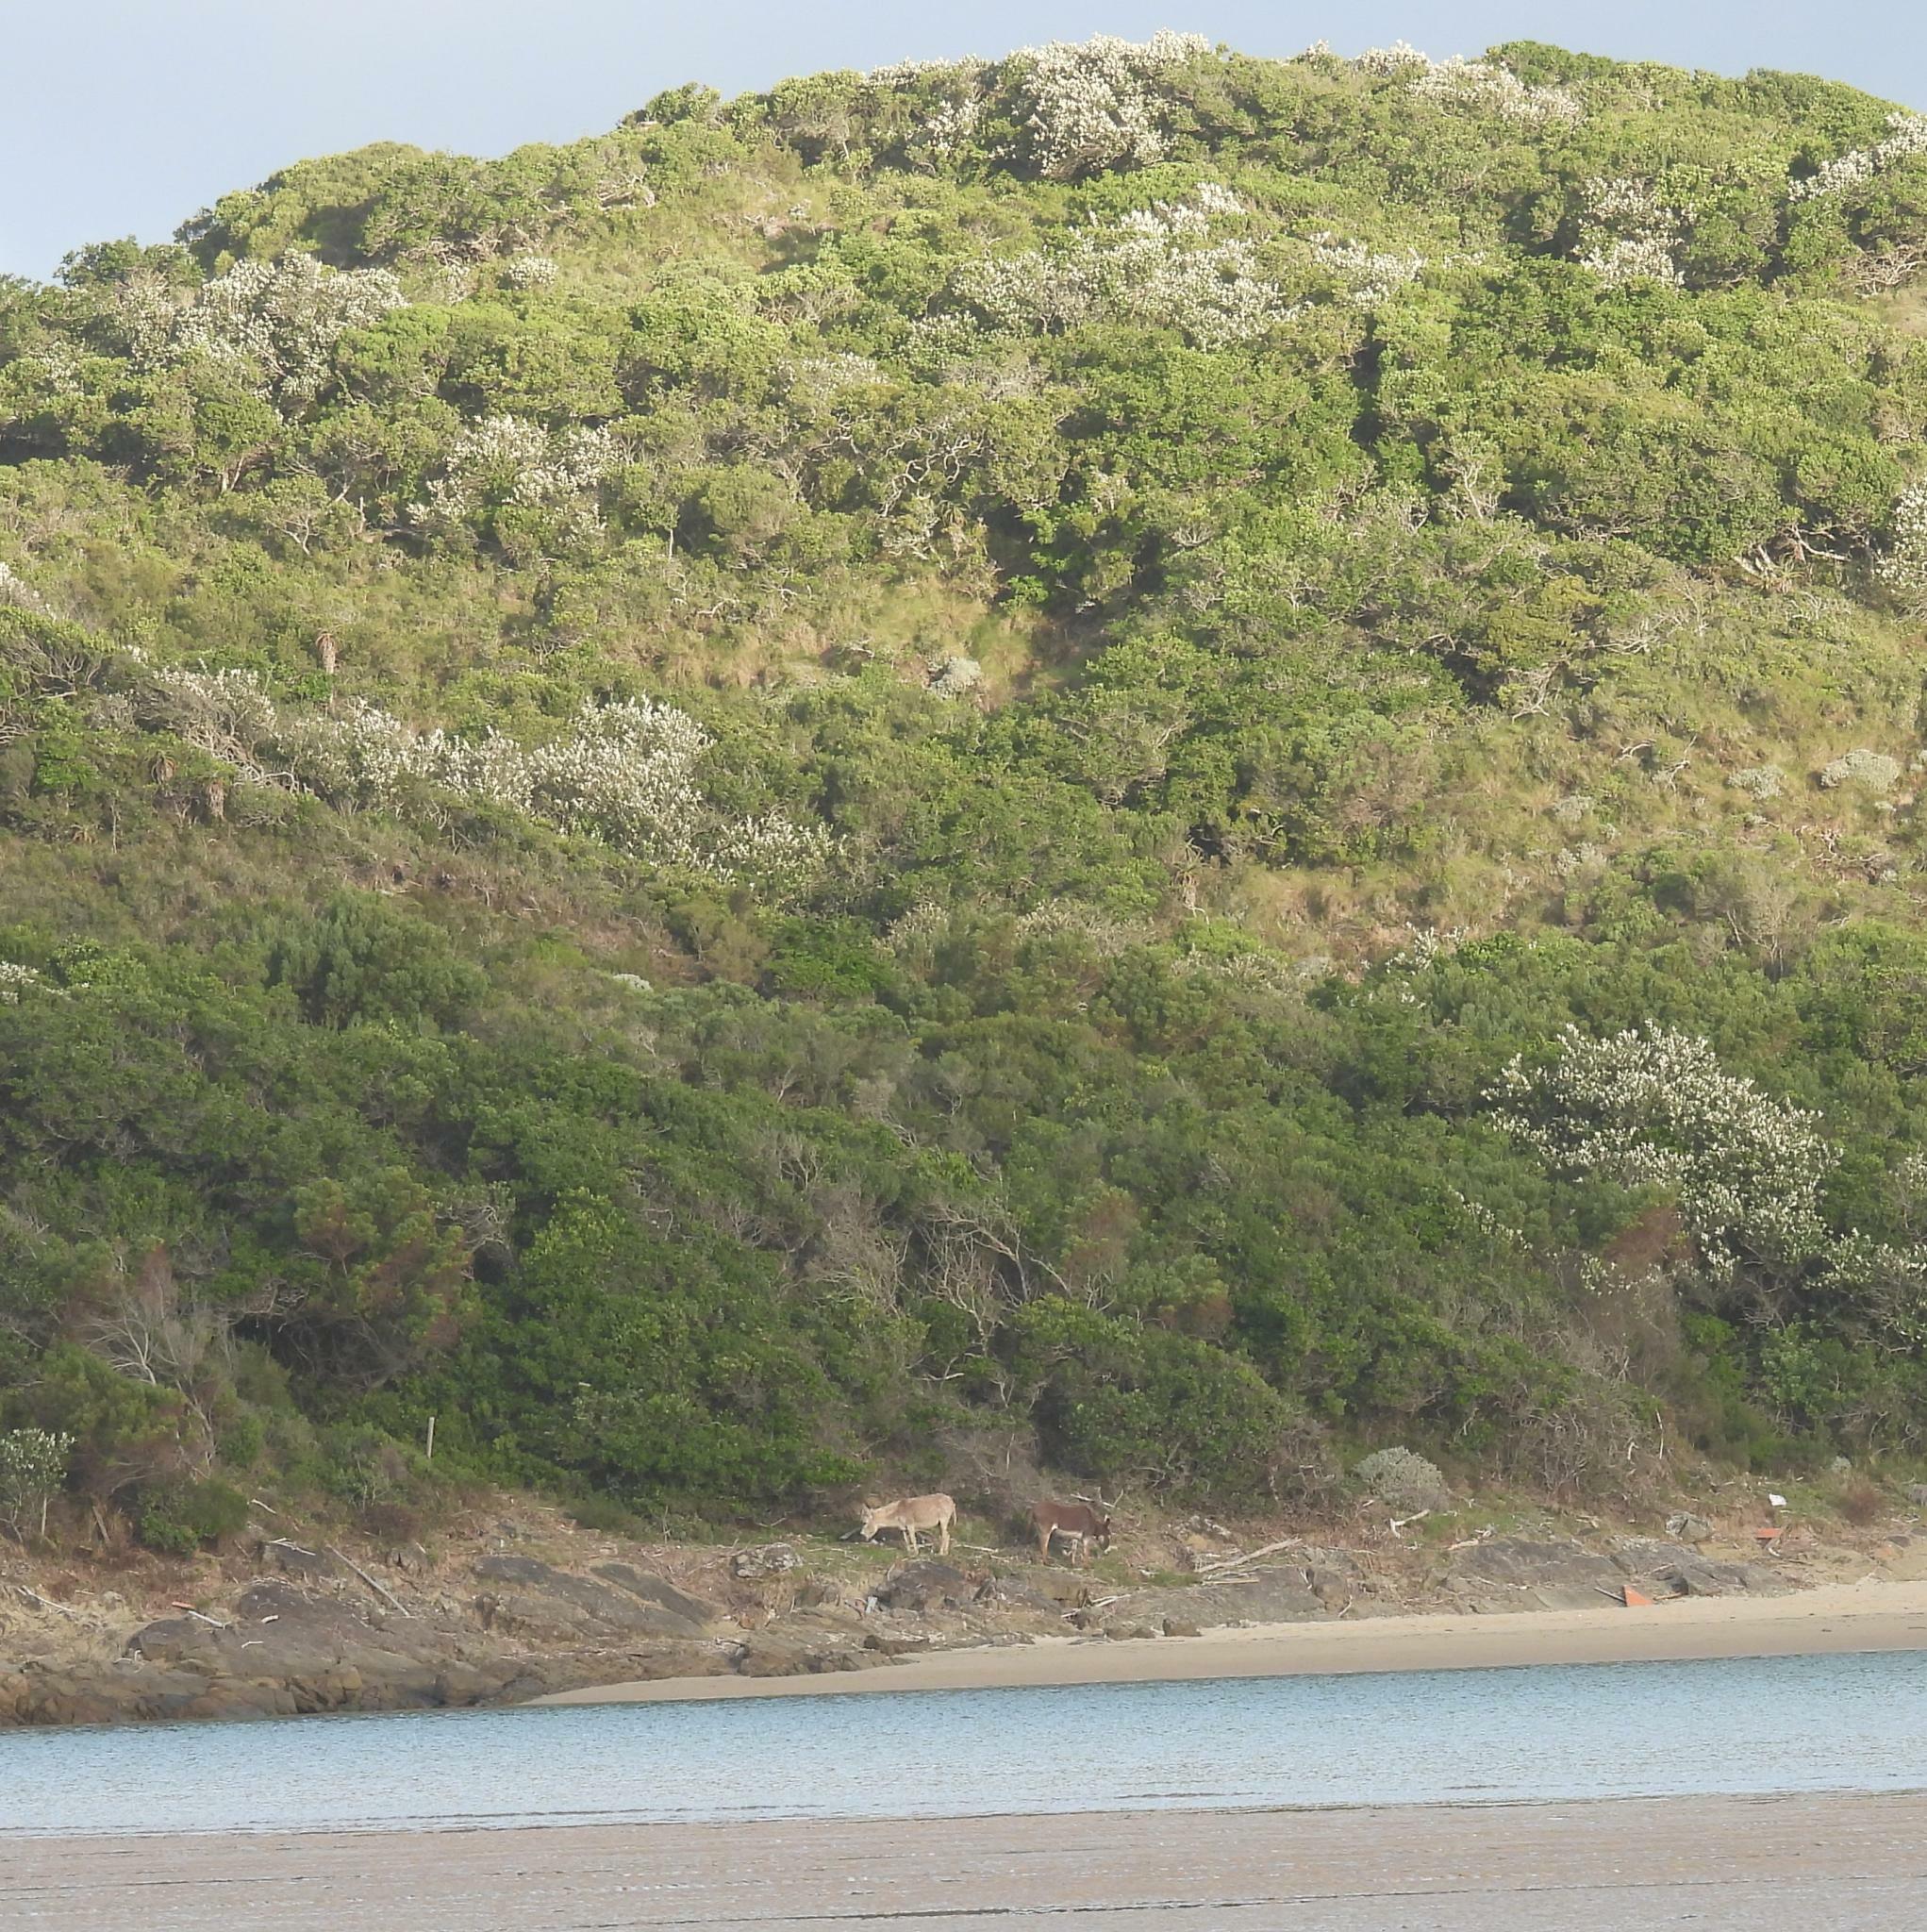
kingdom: Animalia
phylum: Chordata
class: Mammalia
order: Perissodactyla
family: Equidae
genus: Equus
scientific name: Equus asinus
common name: Ass
